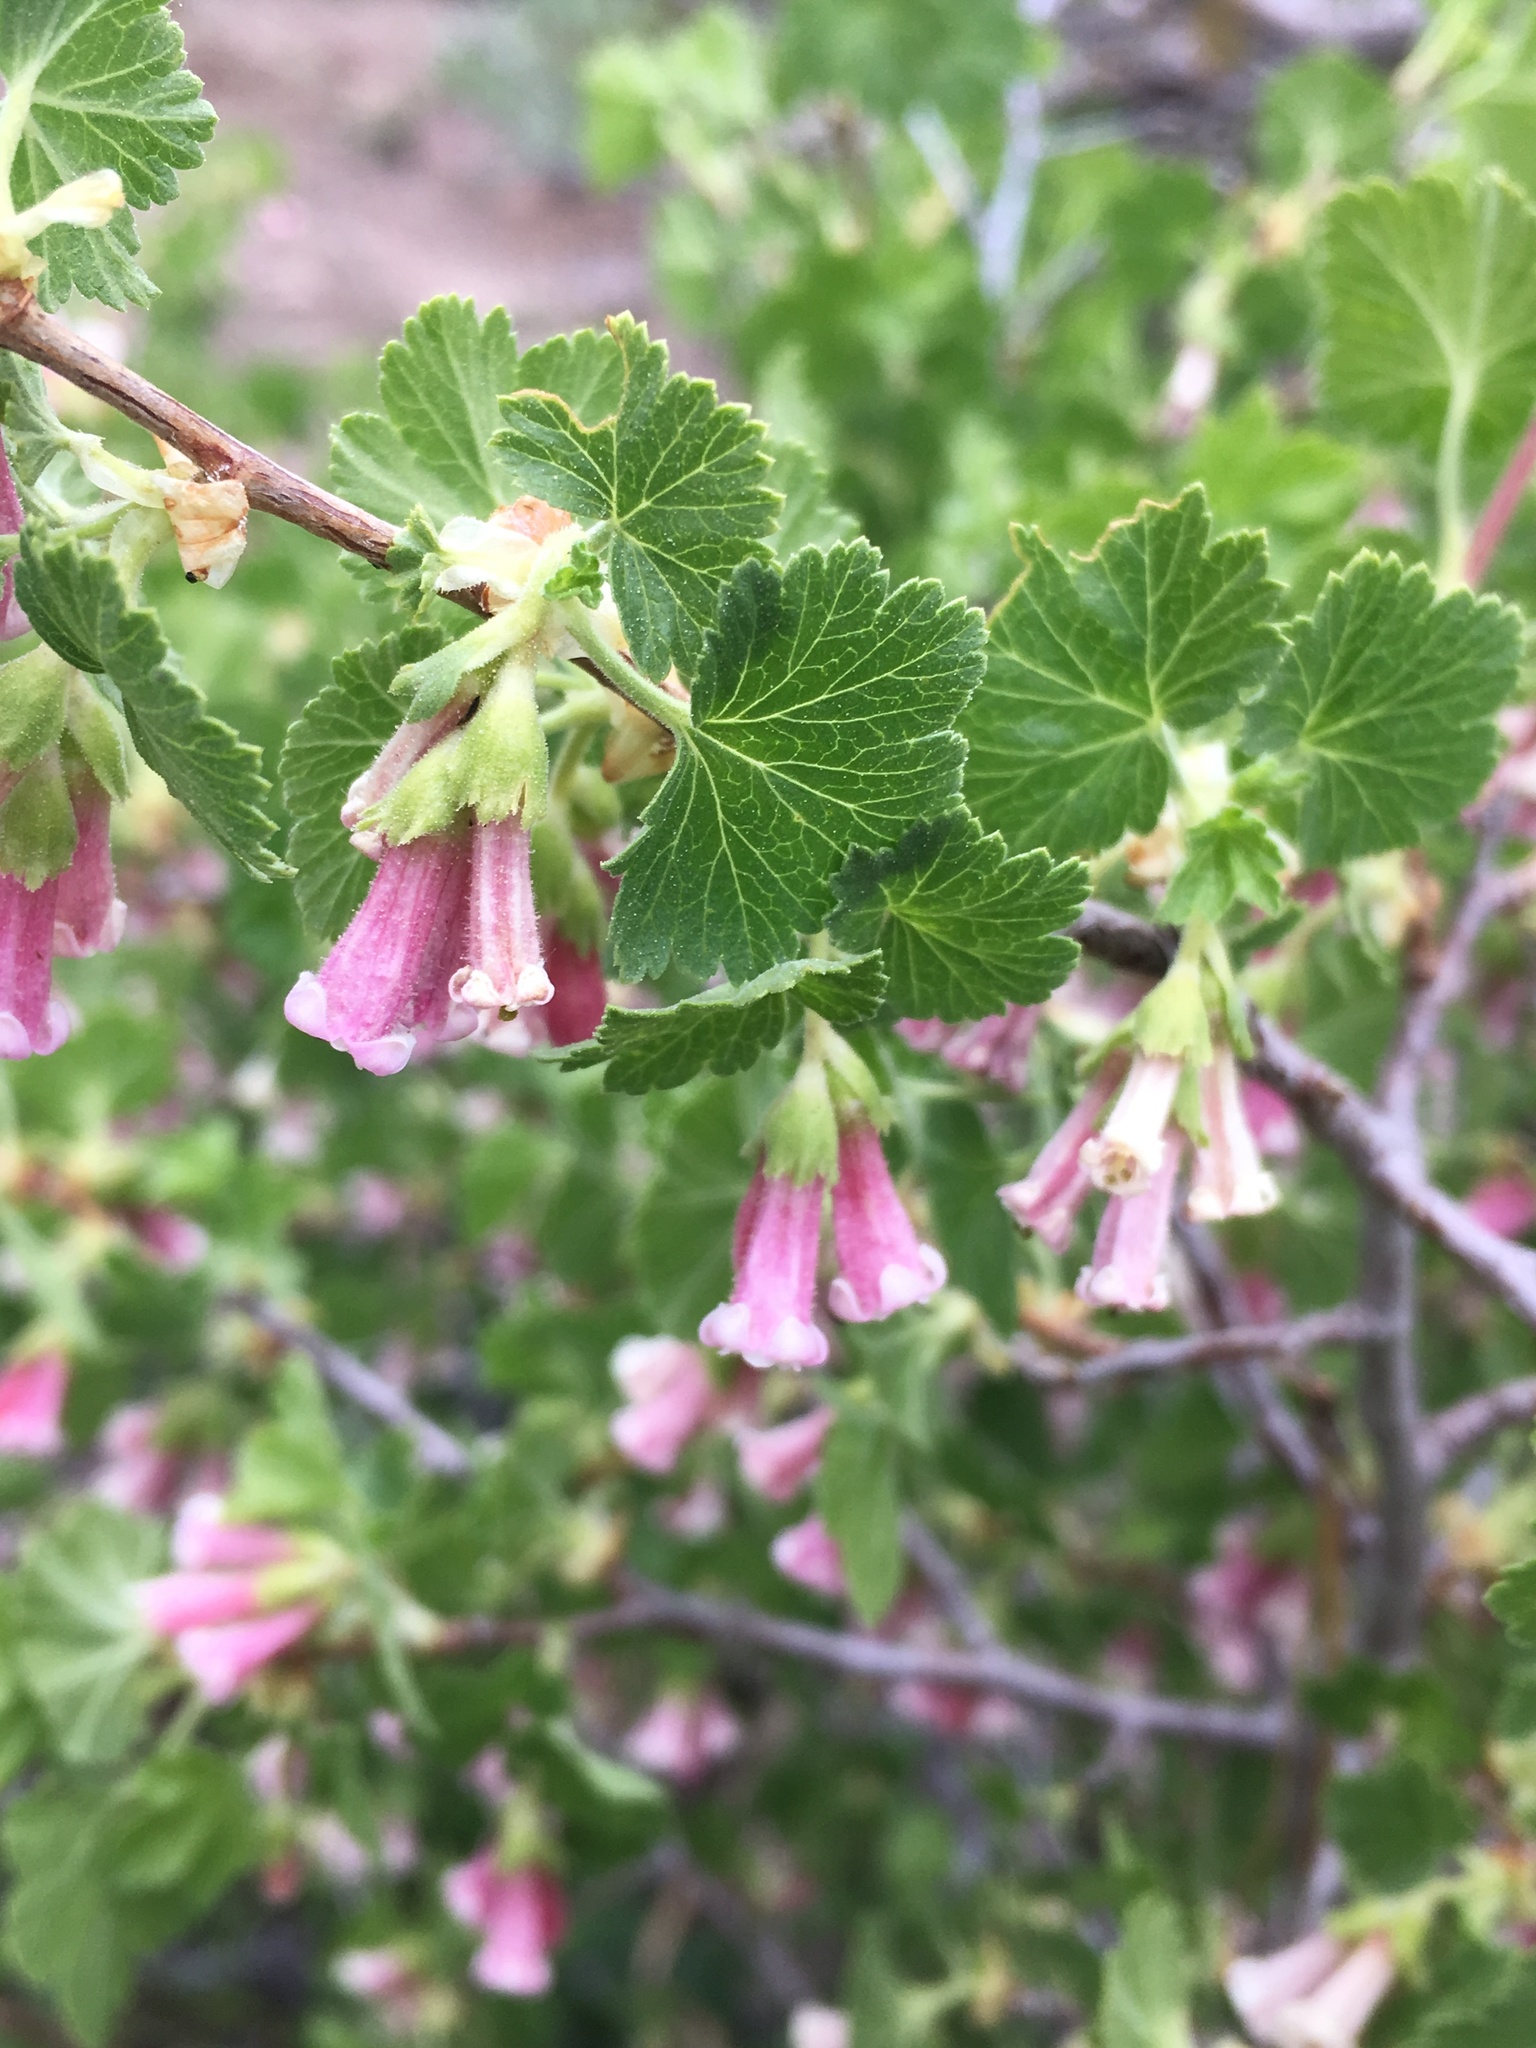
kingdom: Plantae
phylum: Tracheophyta
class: Magnoliopsida
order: Saxifragales
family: Grossulariaceae
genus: Ribes
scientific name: Ribes cereum
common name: Wax currant
